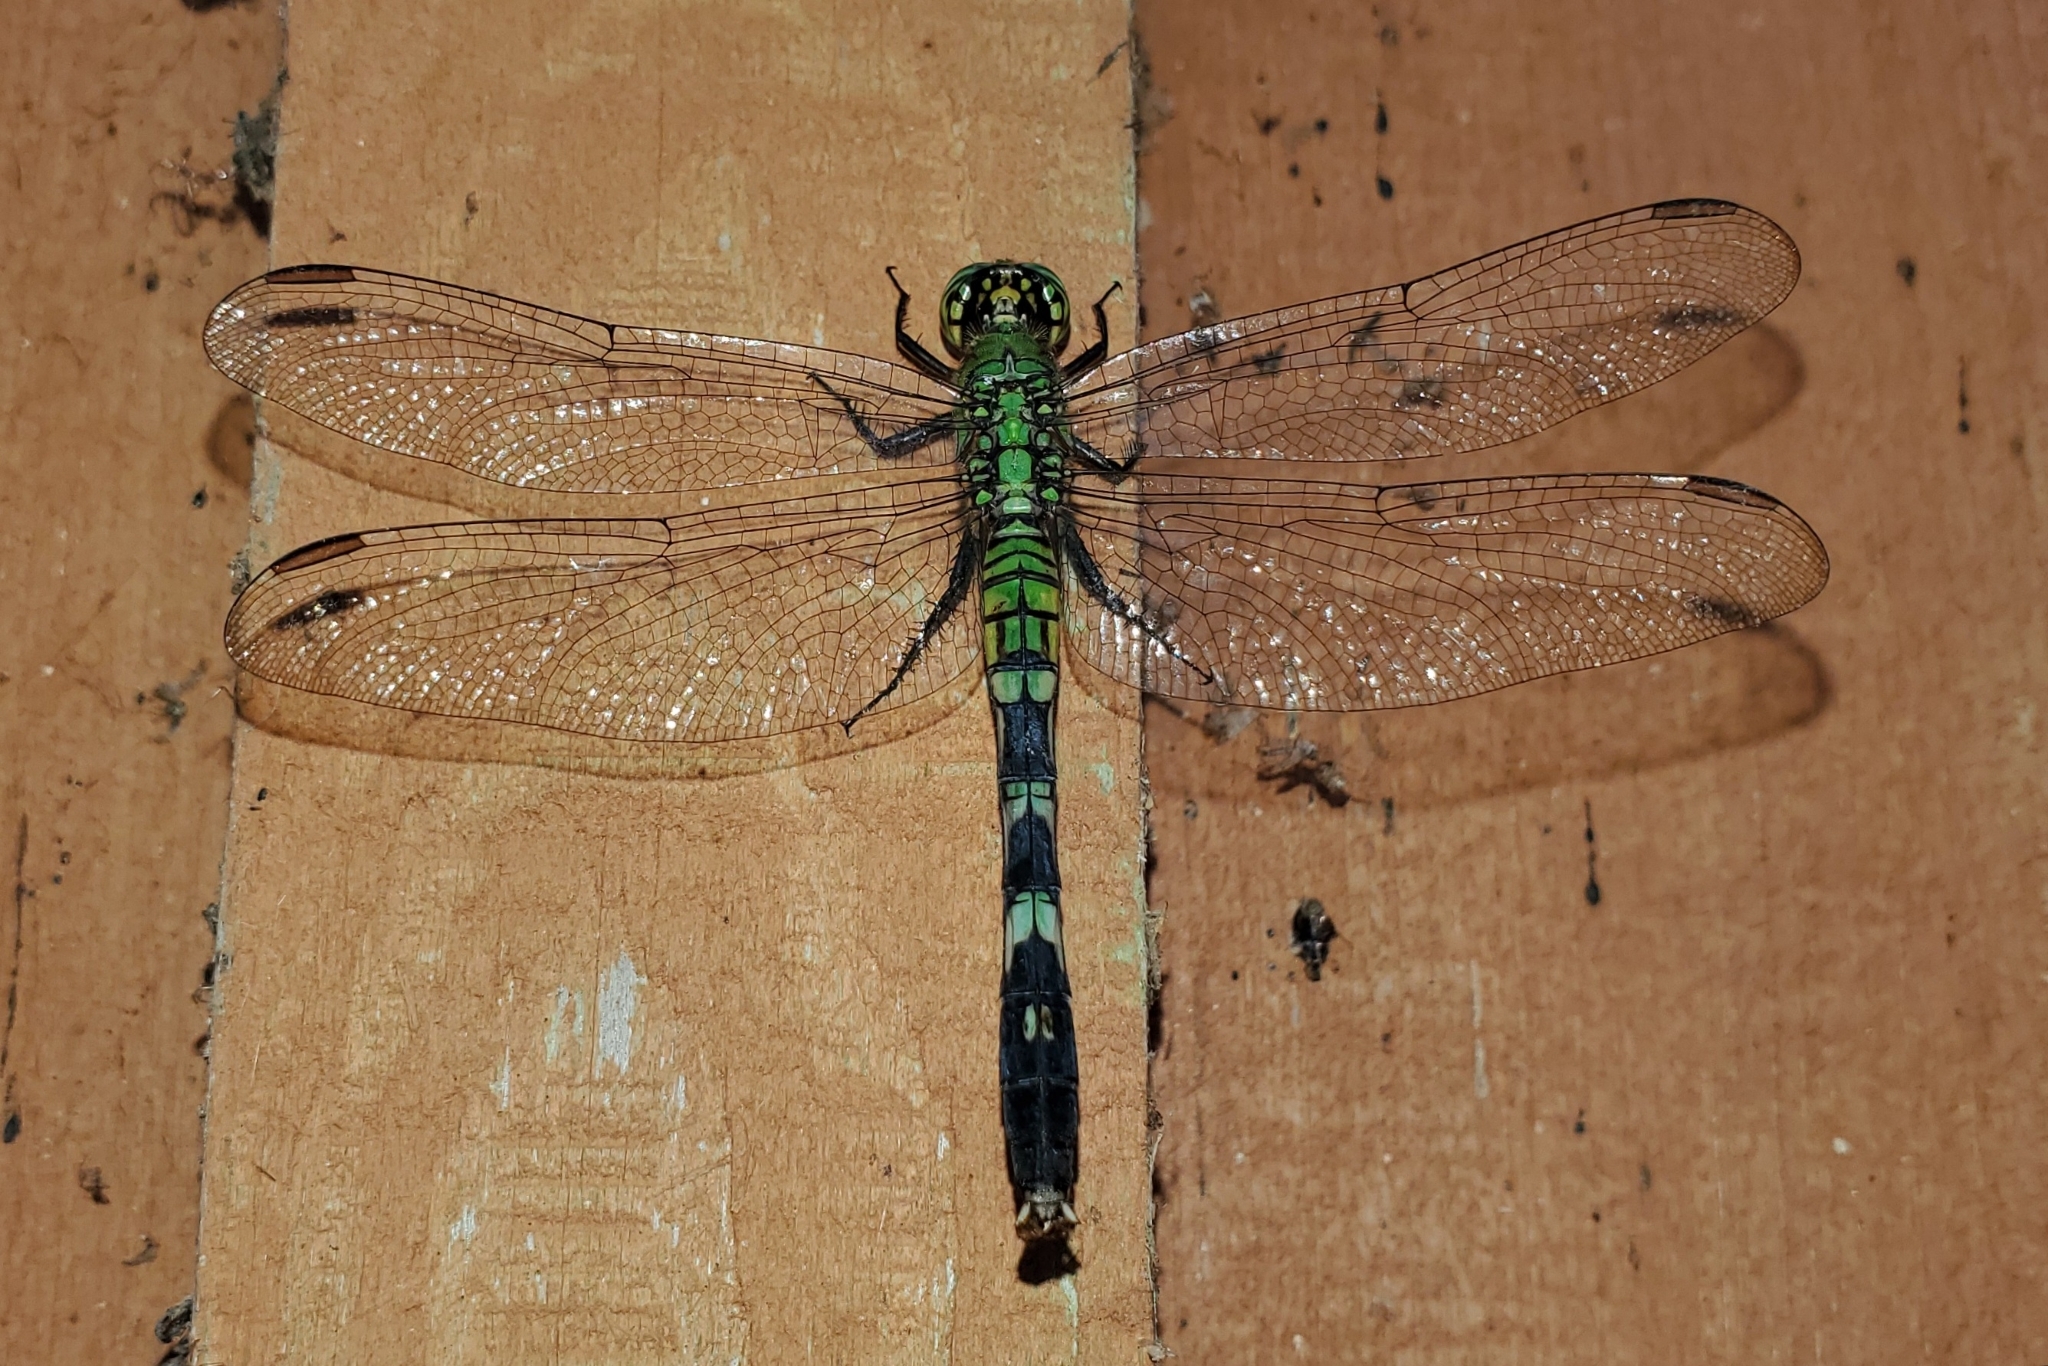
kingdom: Animalia
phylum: Arthropoda
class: Insecta
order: Odonata
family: Libellulidae
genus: Erythemis
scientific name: Erythemis simplicicollis
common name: Eastern pondhawk
